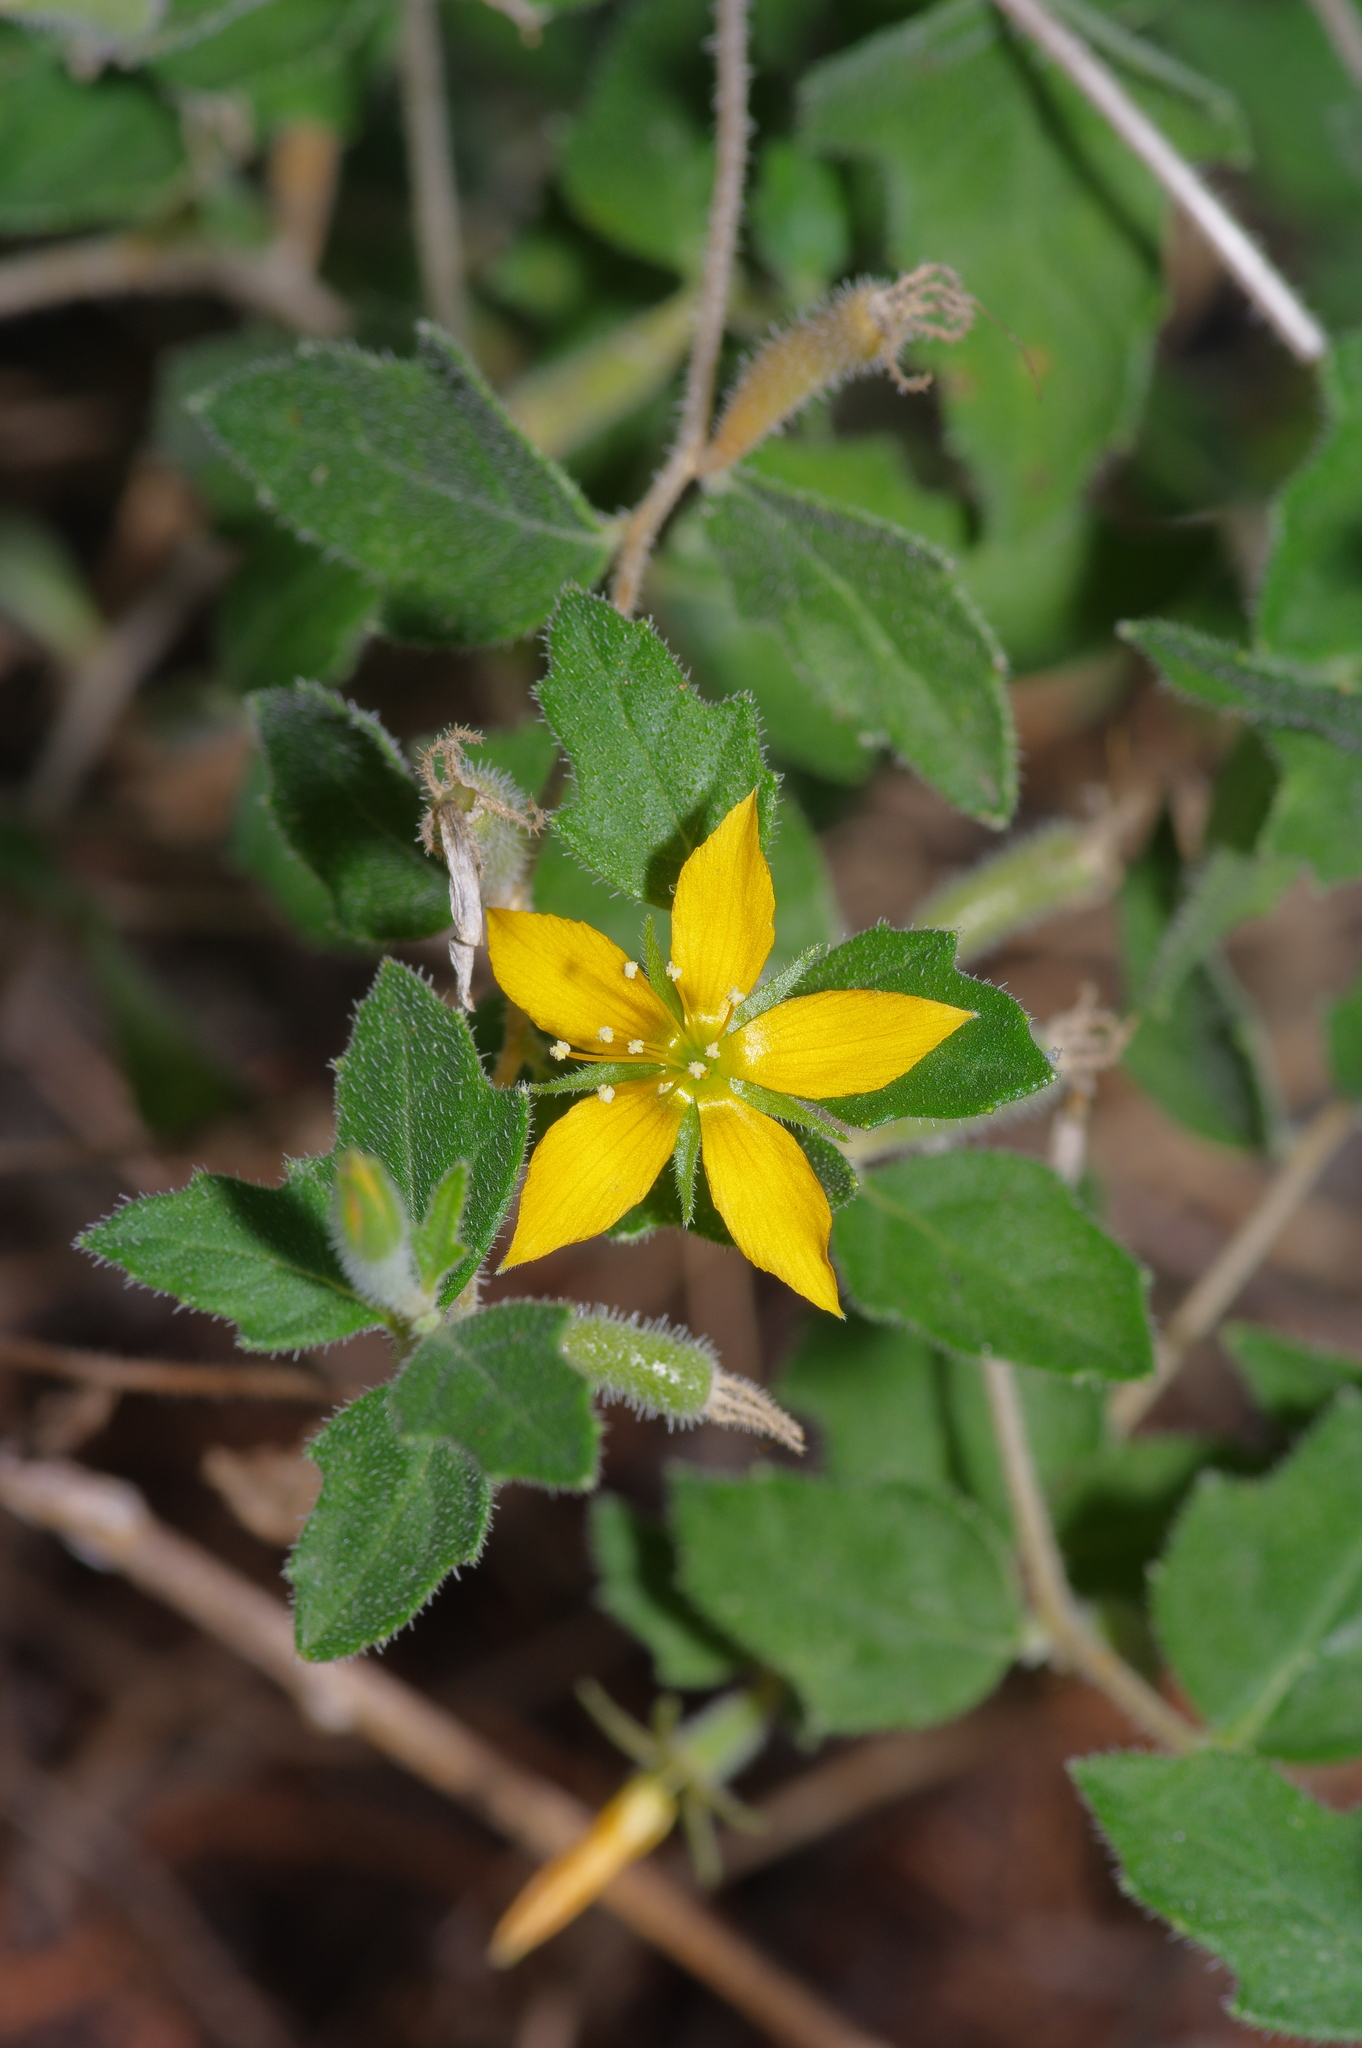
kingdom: Plantae
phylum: Tracheophyta
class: Magnoliopsida
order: Cornales
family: Loasaceae
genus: Mentzelia
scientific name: Mentzelia oligosperma
